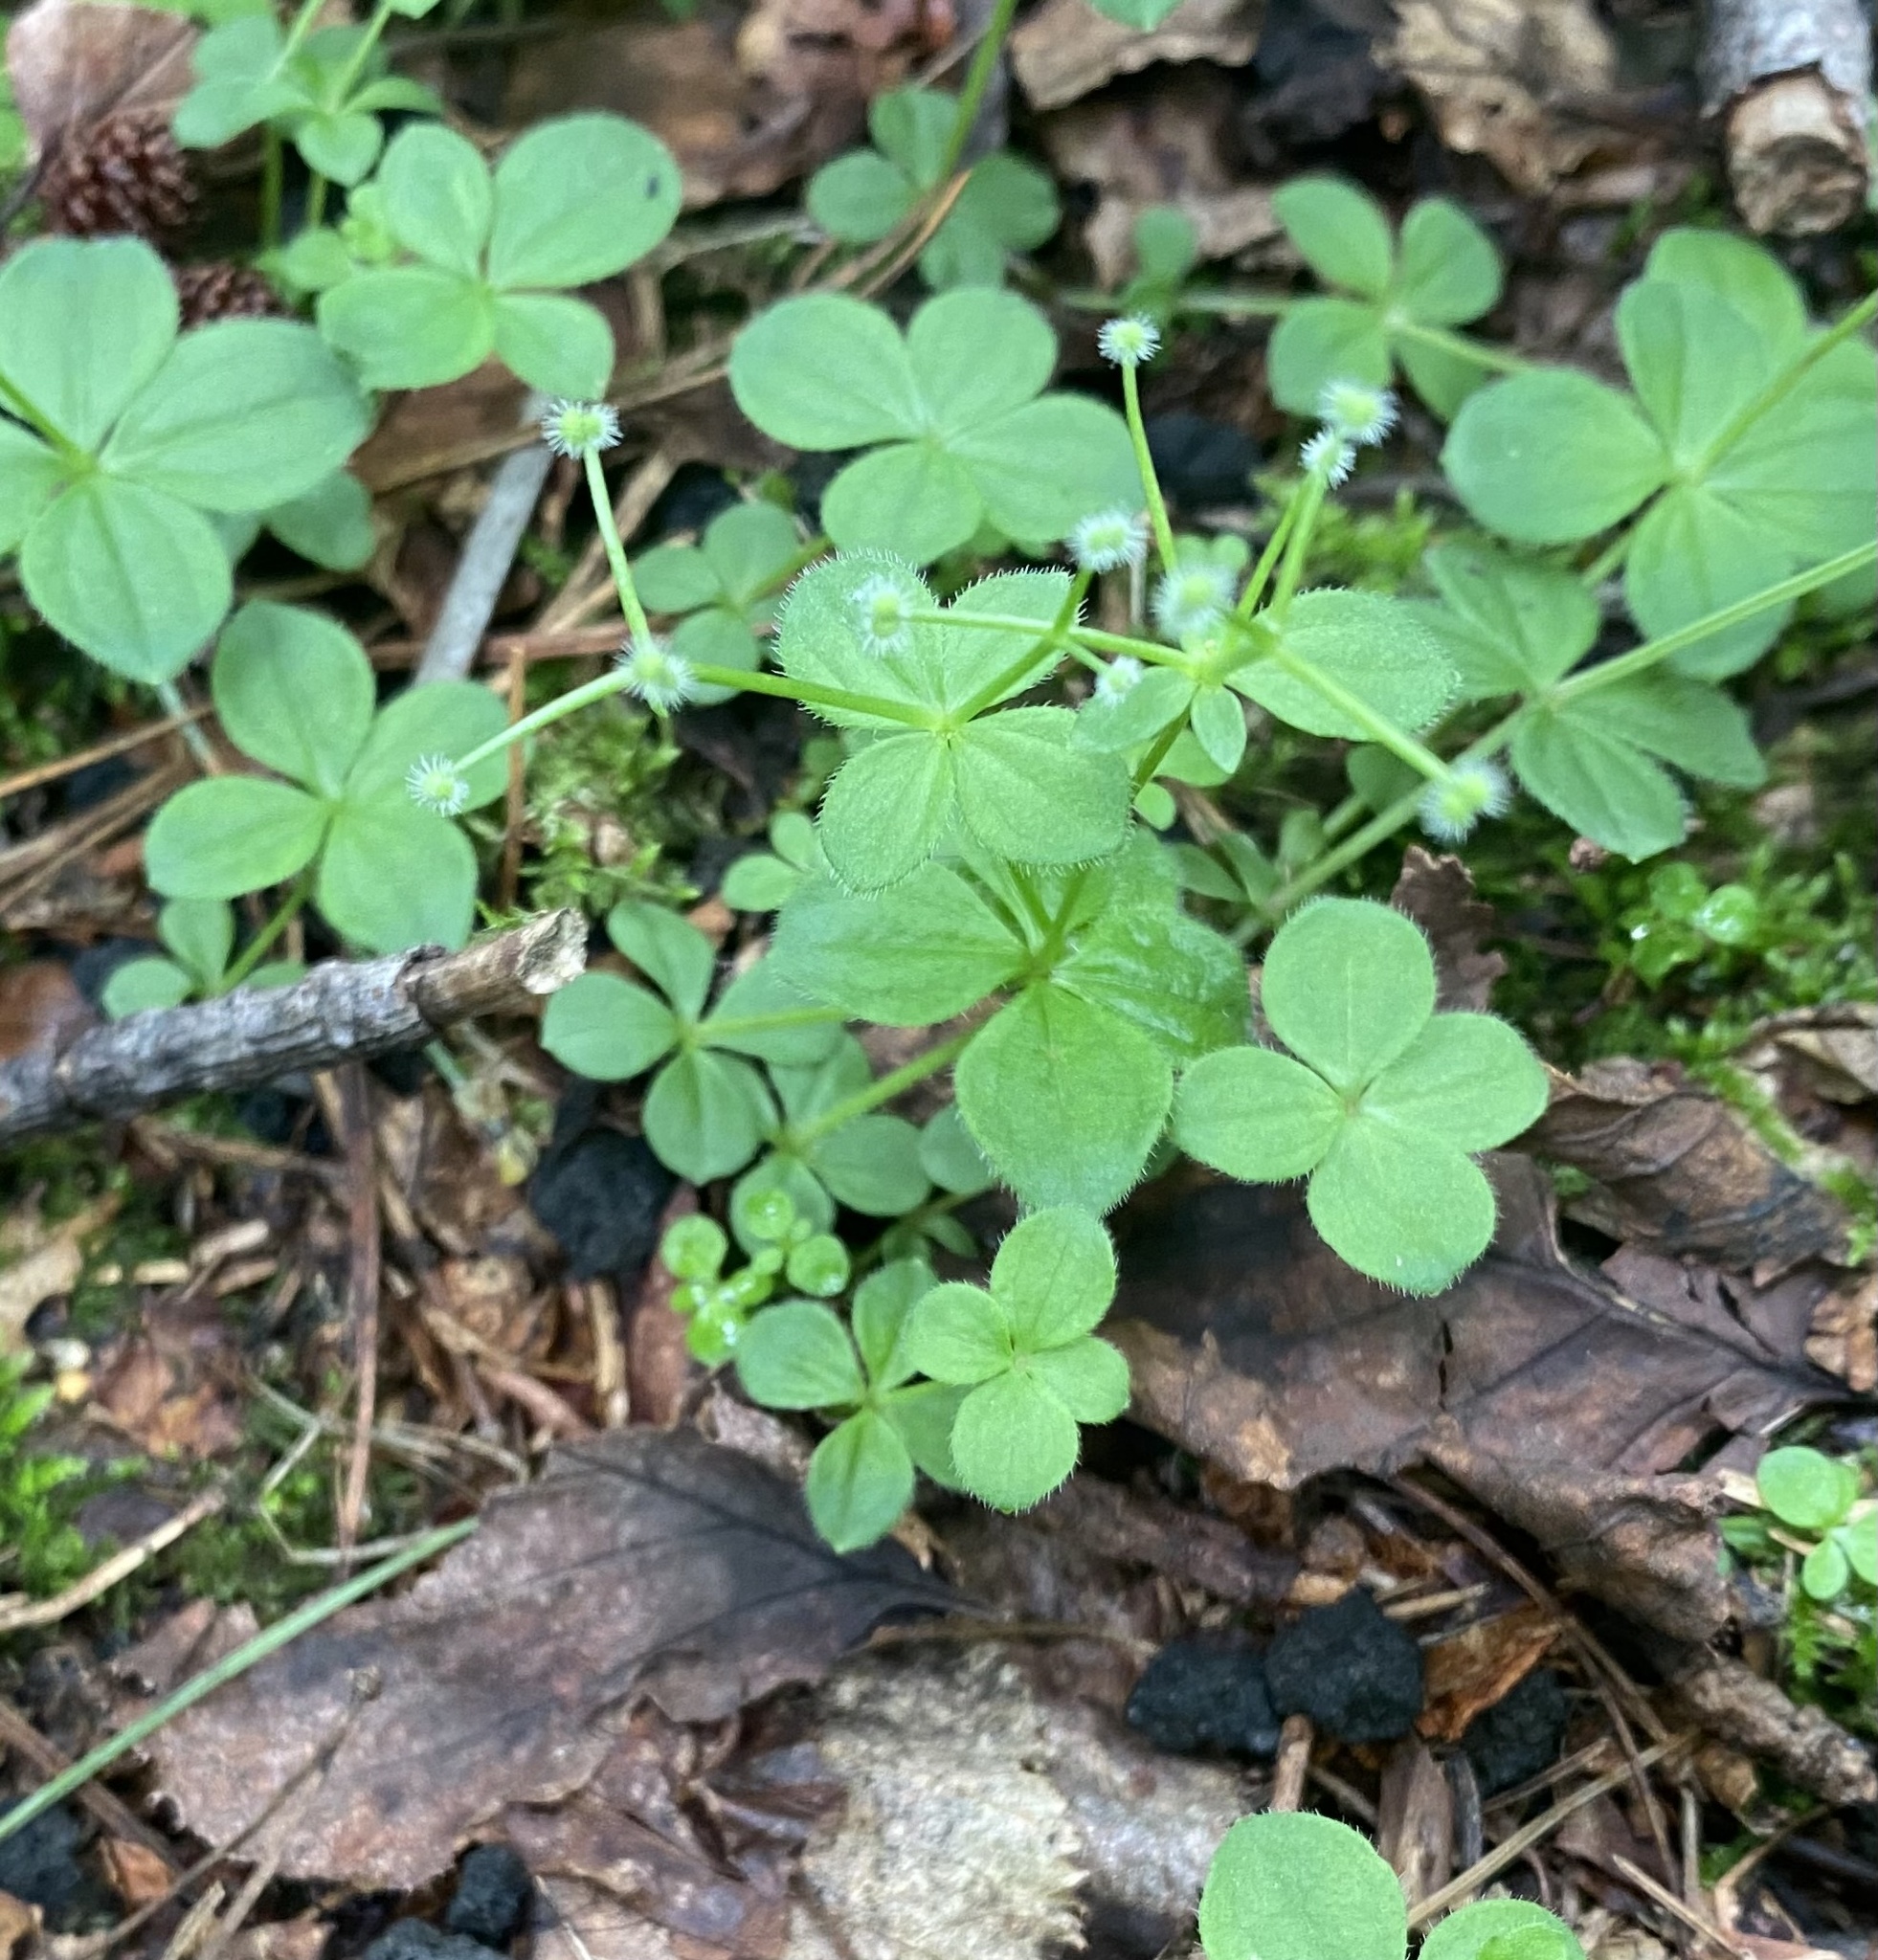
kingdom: Plantae
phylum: Tracheophyta
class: Magnoliopsida
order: Gentianales
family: Rubiaceae
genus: Galium
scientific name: Galium kamtschaticum
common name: Boreal bedstraw
